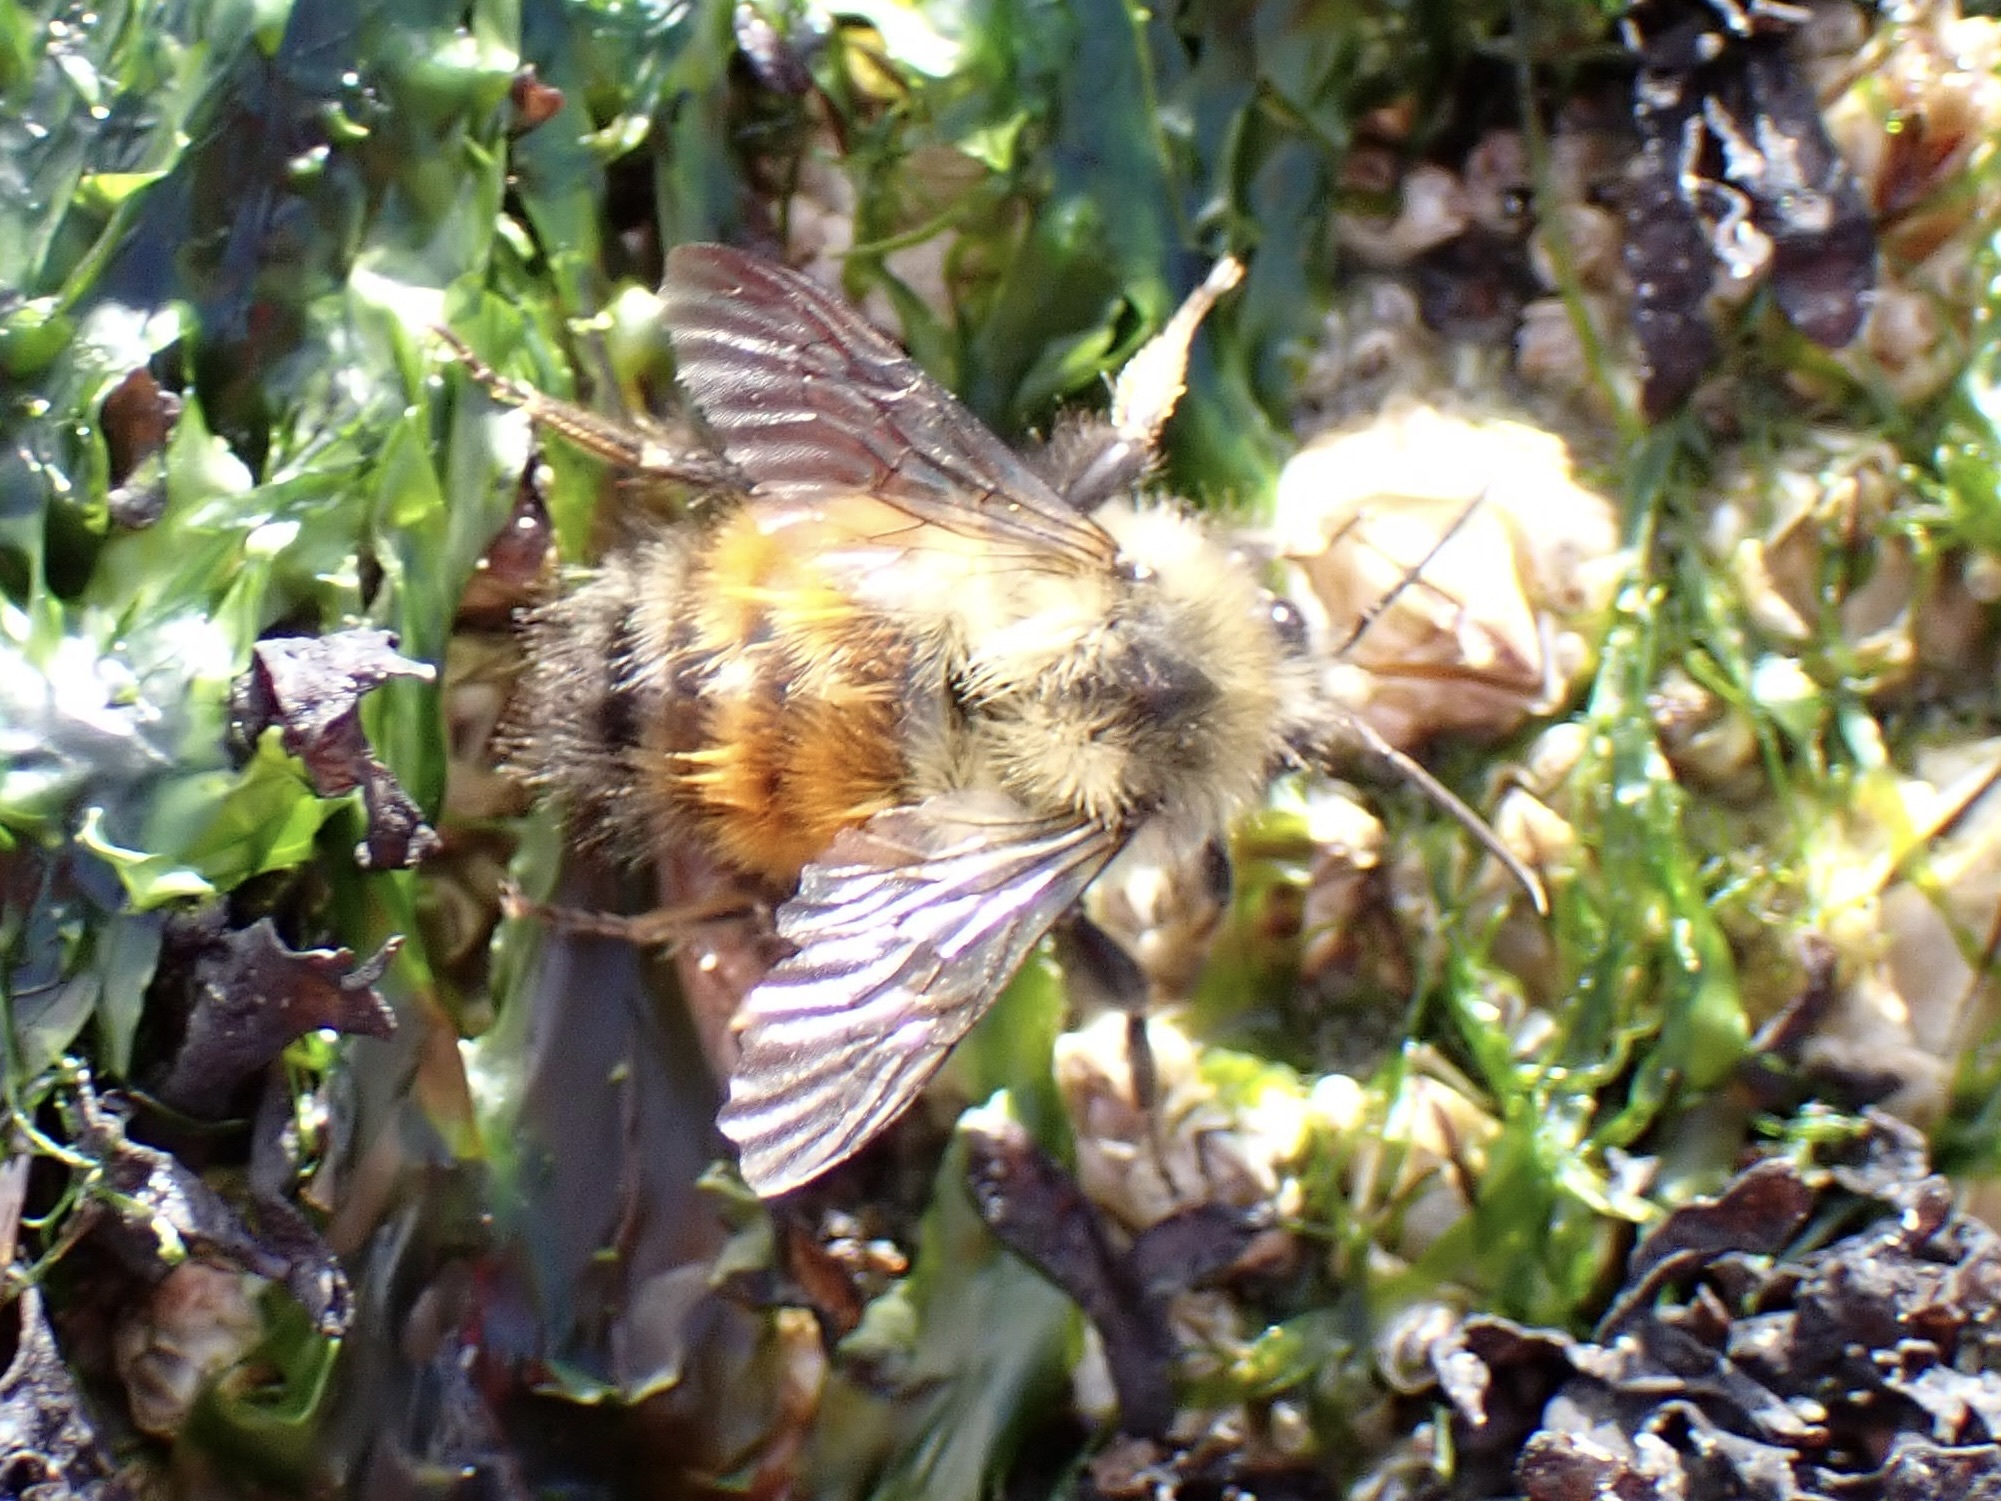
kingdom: Animalia
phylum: Arthropoda
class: Insecta
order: Hymenoptera
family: Apidae
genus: Bombus
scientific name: Bombus melanopygus
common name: Black tail bumble bee
